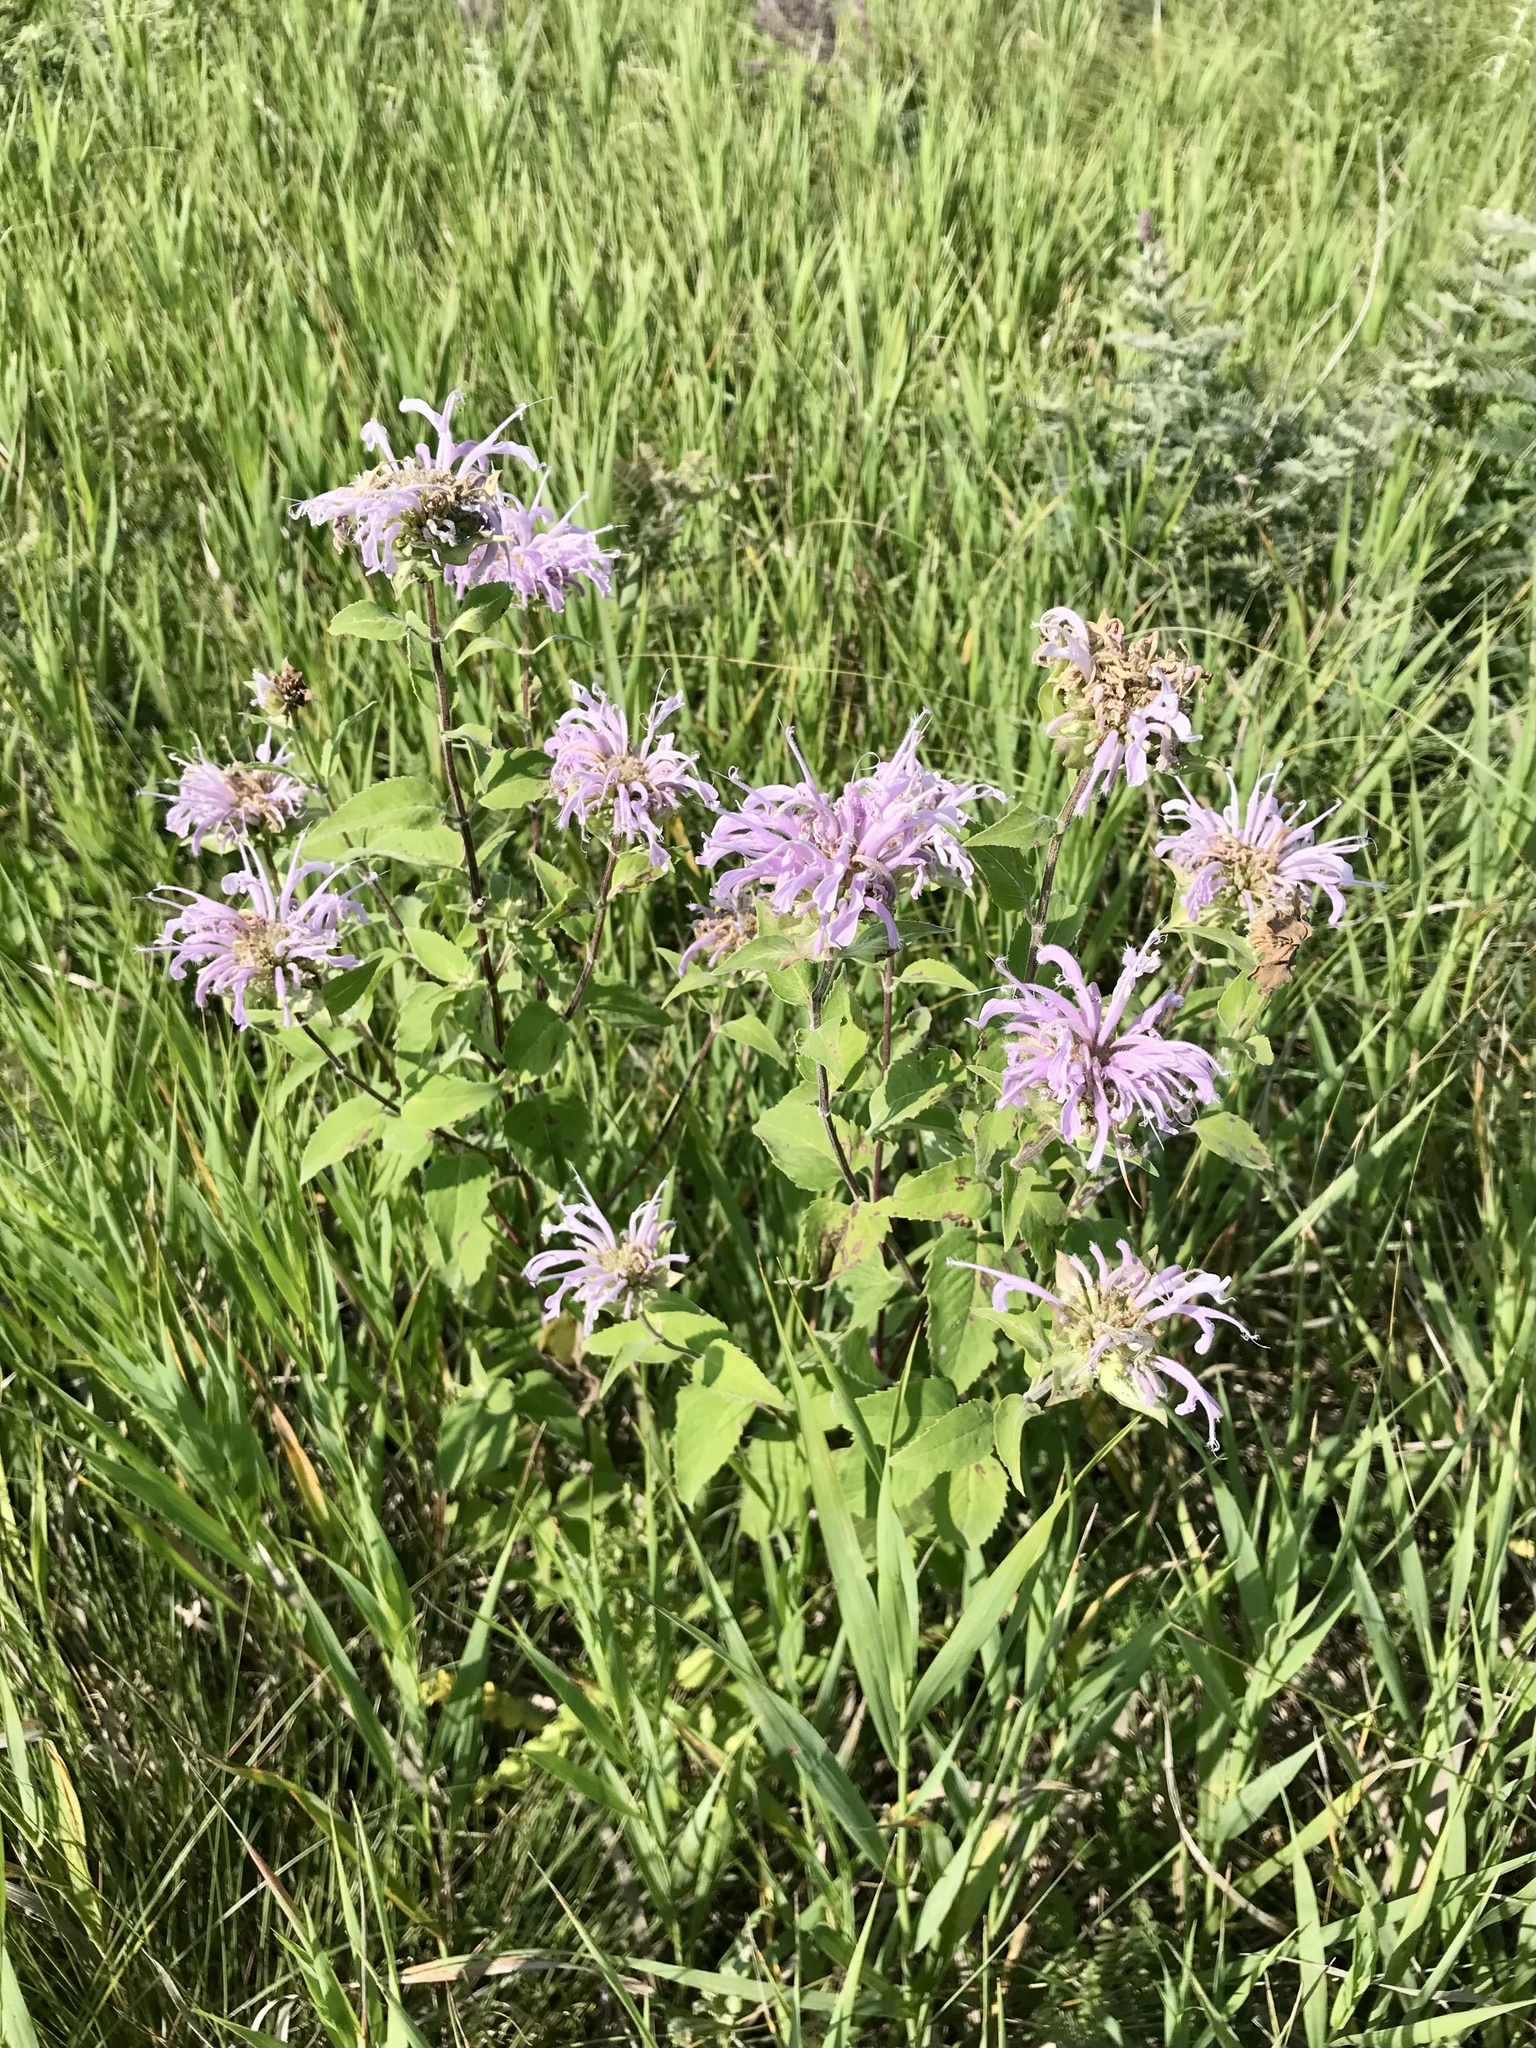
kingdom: Plantae
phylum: Tracheophyta
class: Magnoliopsida
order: Lamiales
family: Lamiaceae
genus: Monarda
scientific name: Monarda fistulosa
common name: Purple beebalm
